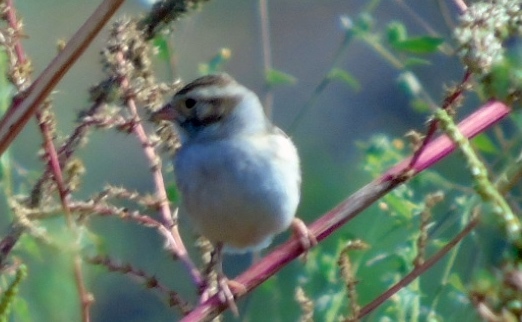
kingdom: Animalia
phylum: Chordata
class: Aves
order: Passeriformes
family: Passerellidae
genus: Spizella
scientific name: Spizella pallida
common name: Clay-colored sparrow
